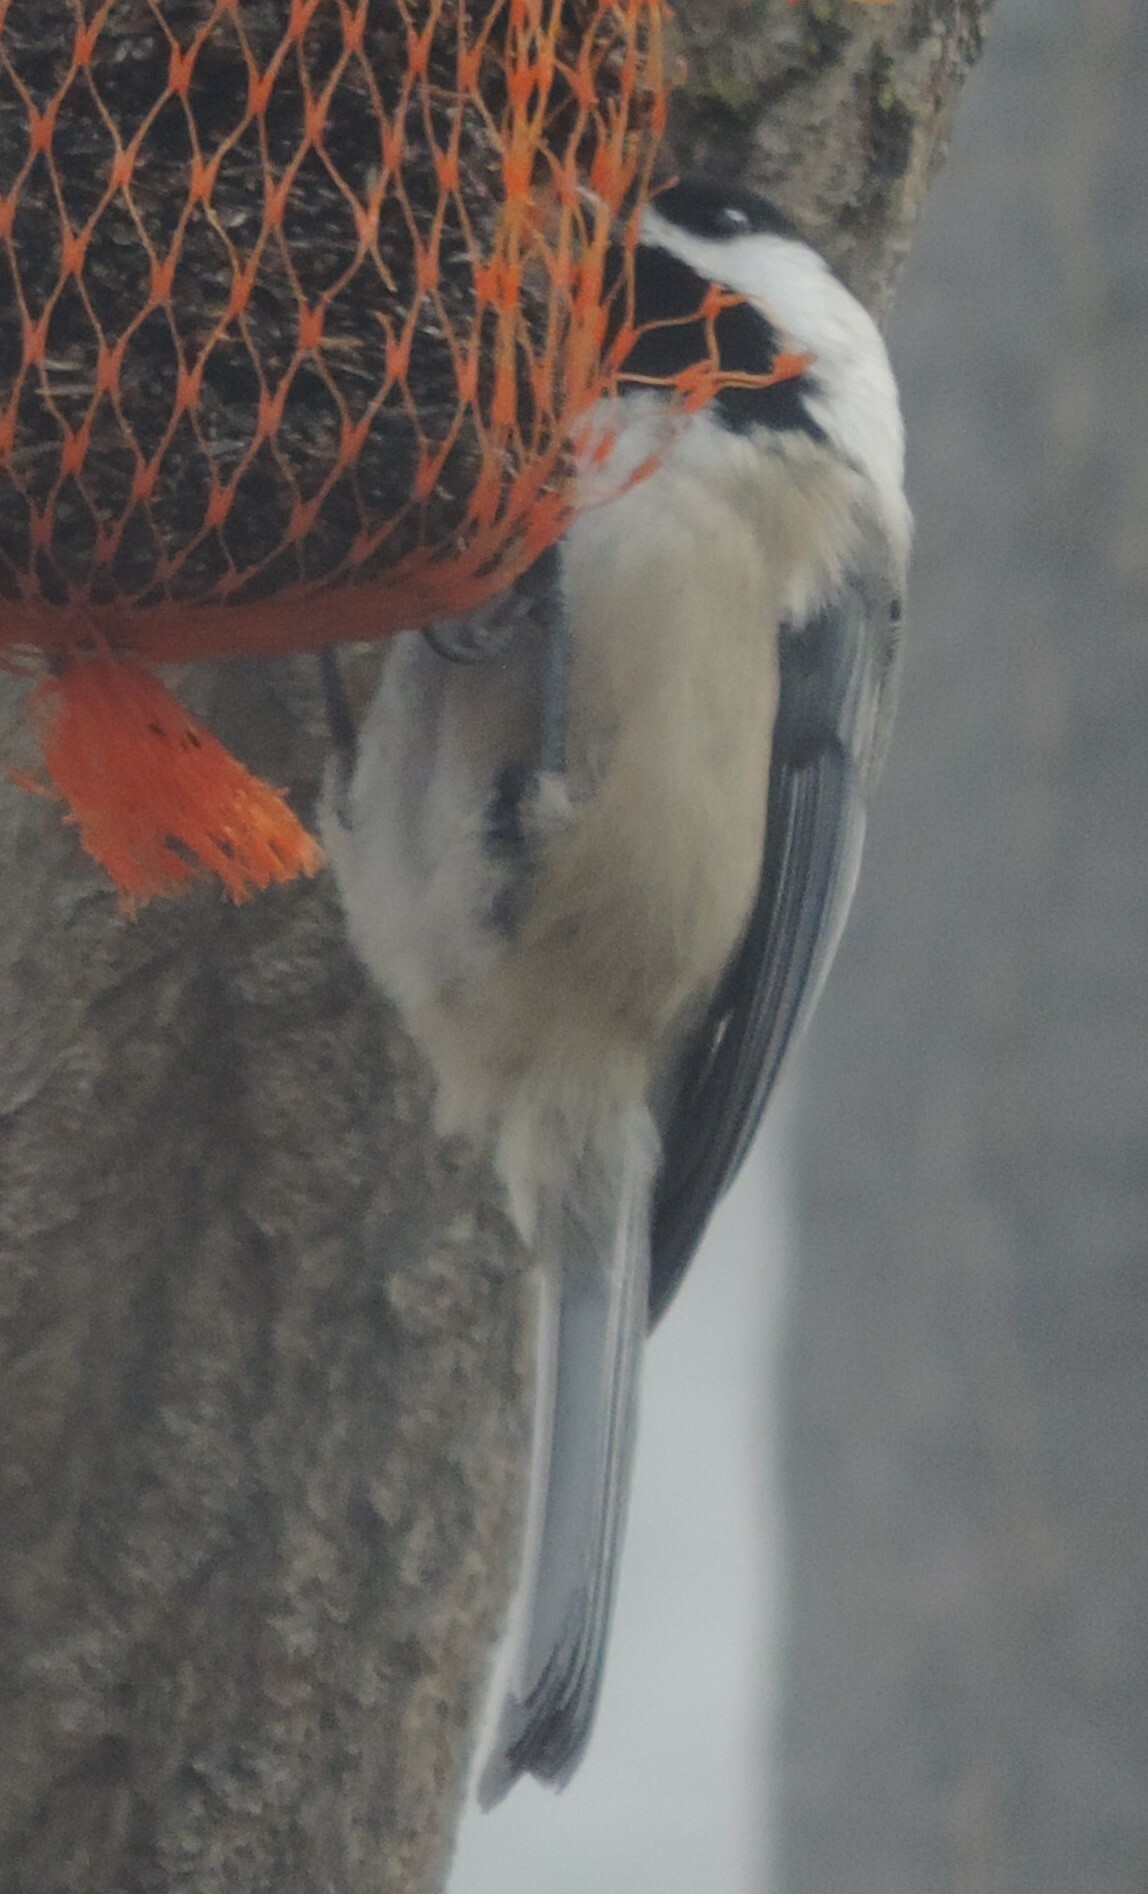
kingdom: Animalia
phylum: Chordata
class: Aves
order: Passeriformes
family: Paridae
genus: Poecile
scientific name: Poecile atricapillus
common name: Black-capped chickadee
